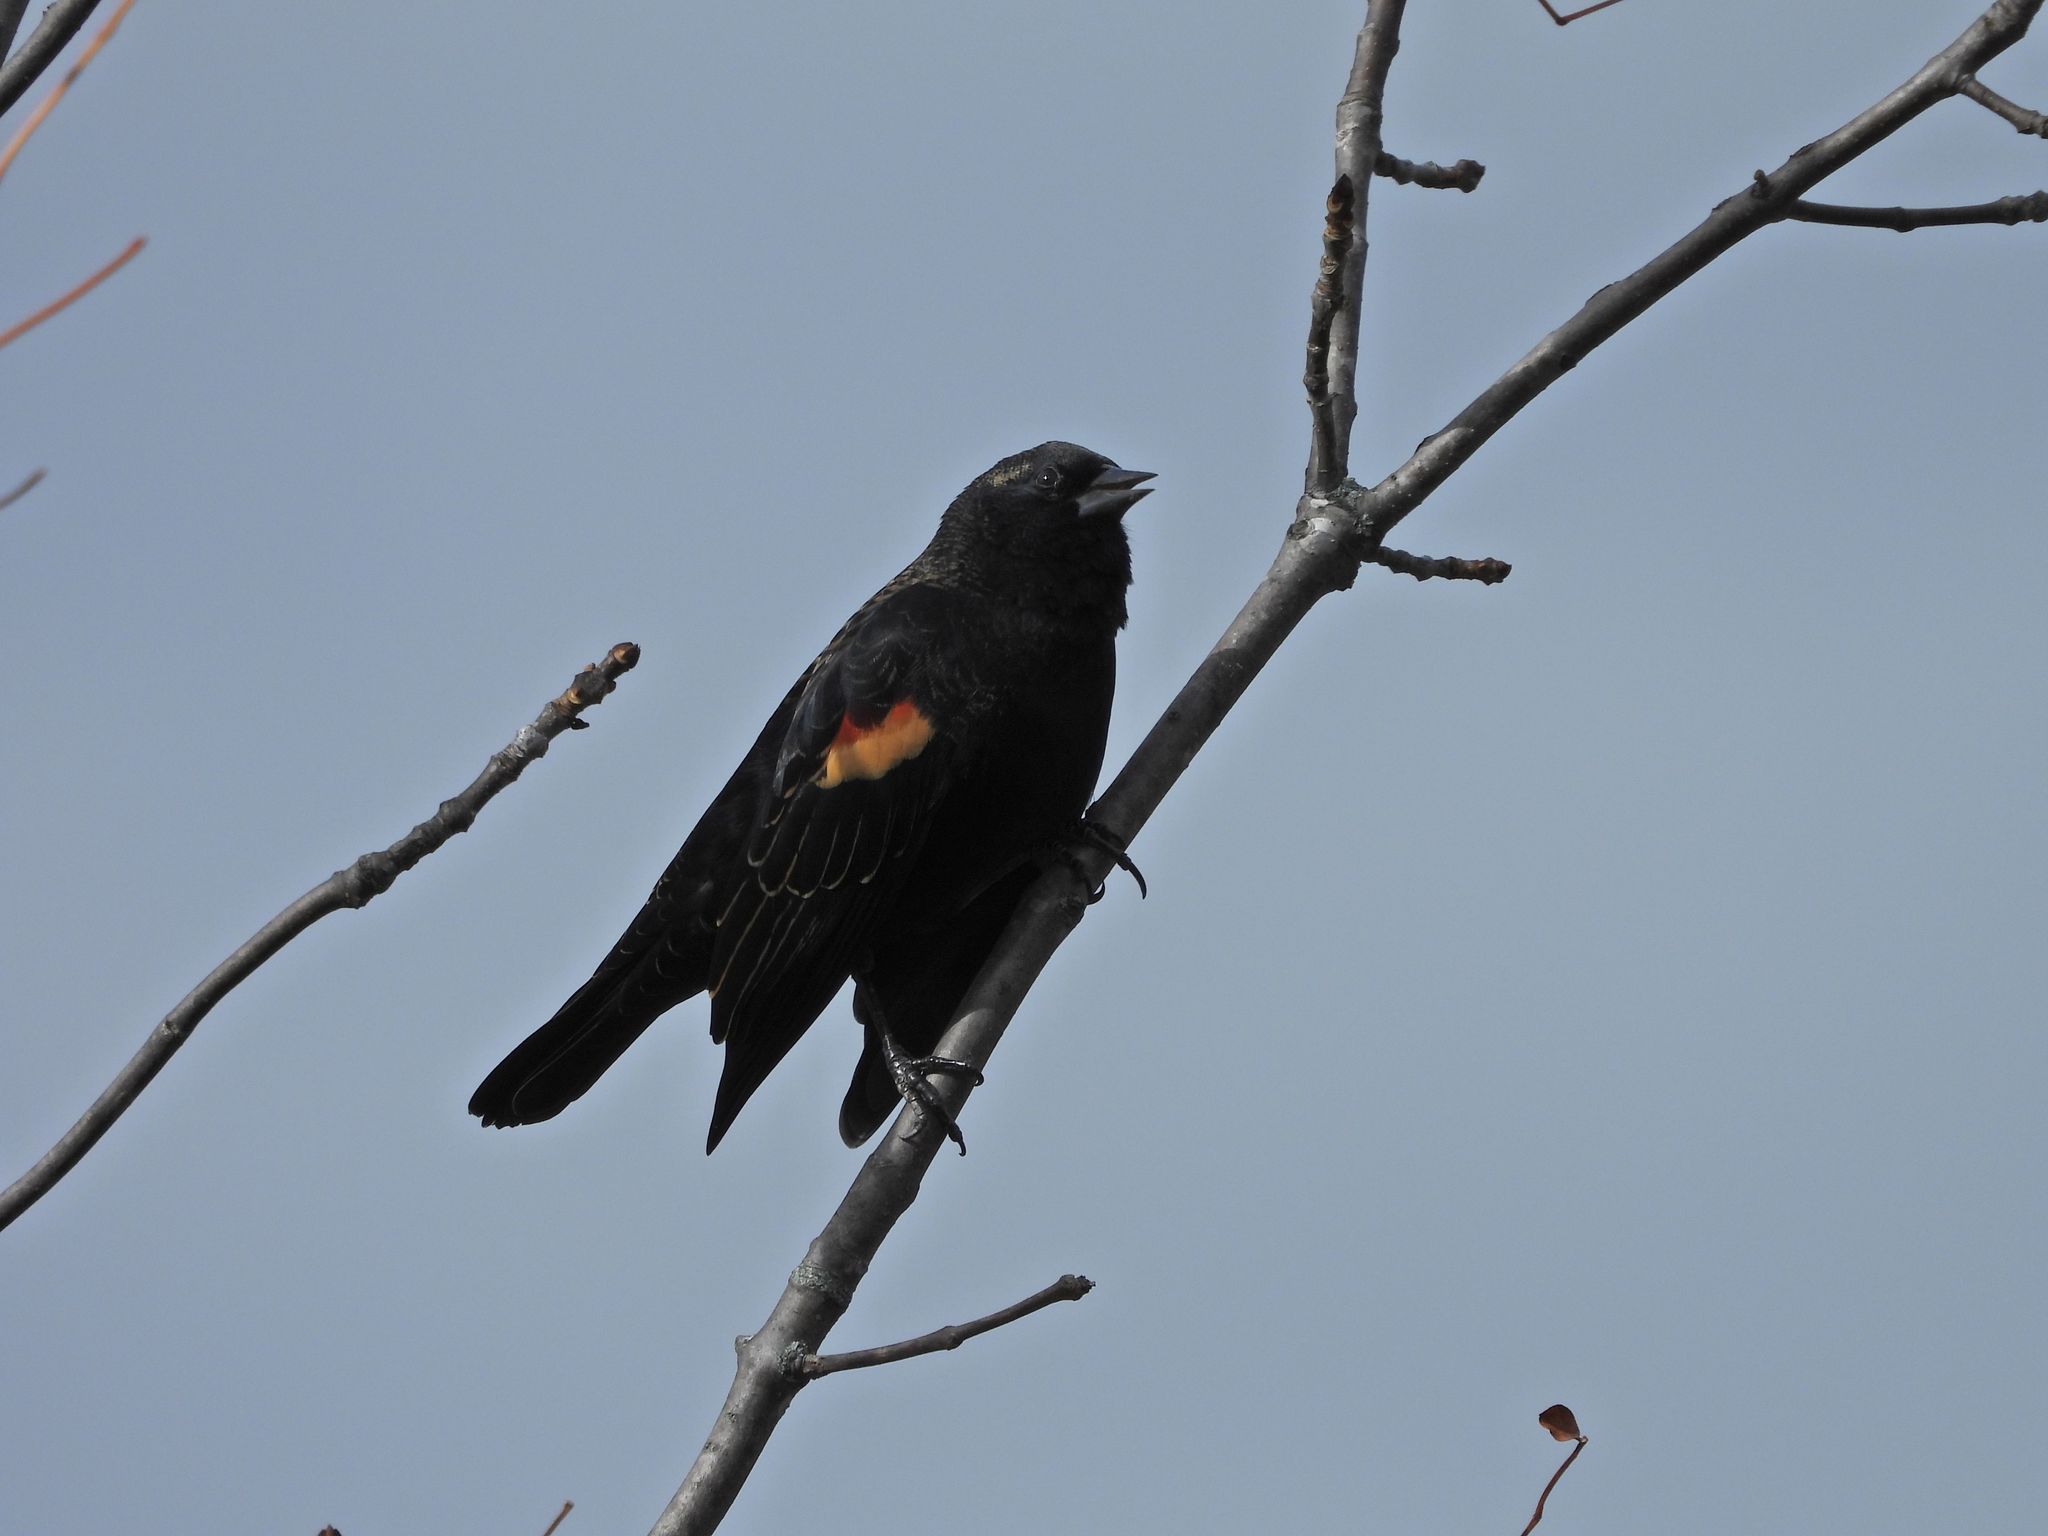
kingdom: Animalia
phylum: Chordata
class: Aves
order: Passeriformes
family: Icteridae
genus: Agelaius
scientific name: Agelaius phoeniceus
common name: Red-winged blackbird
